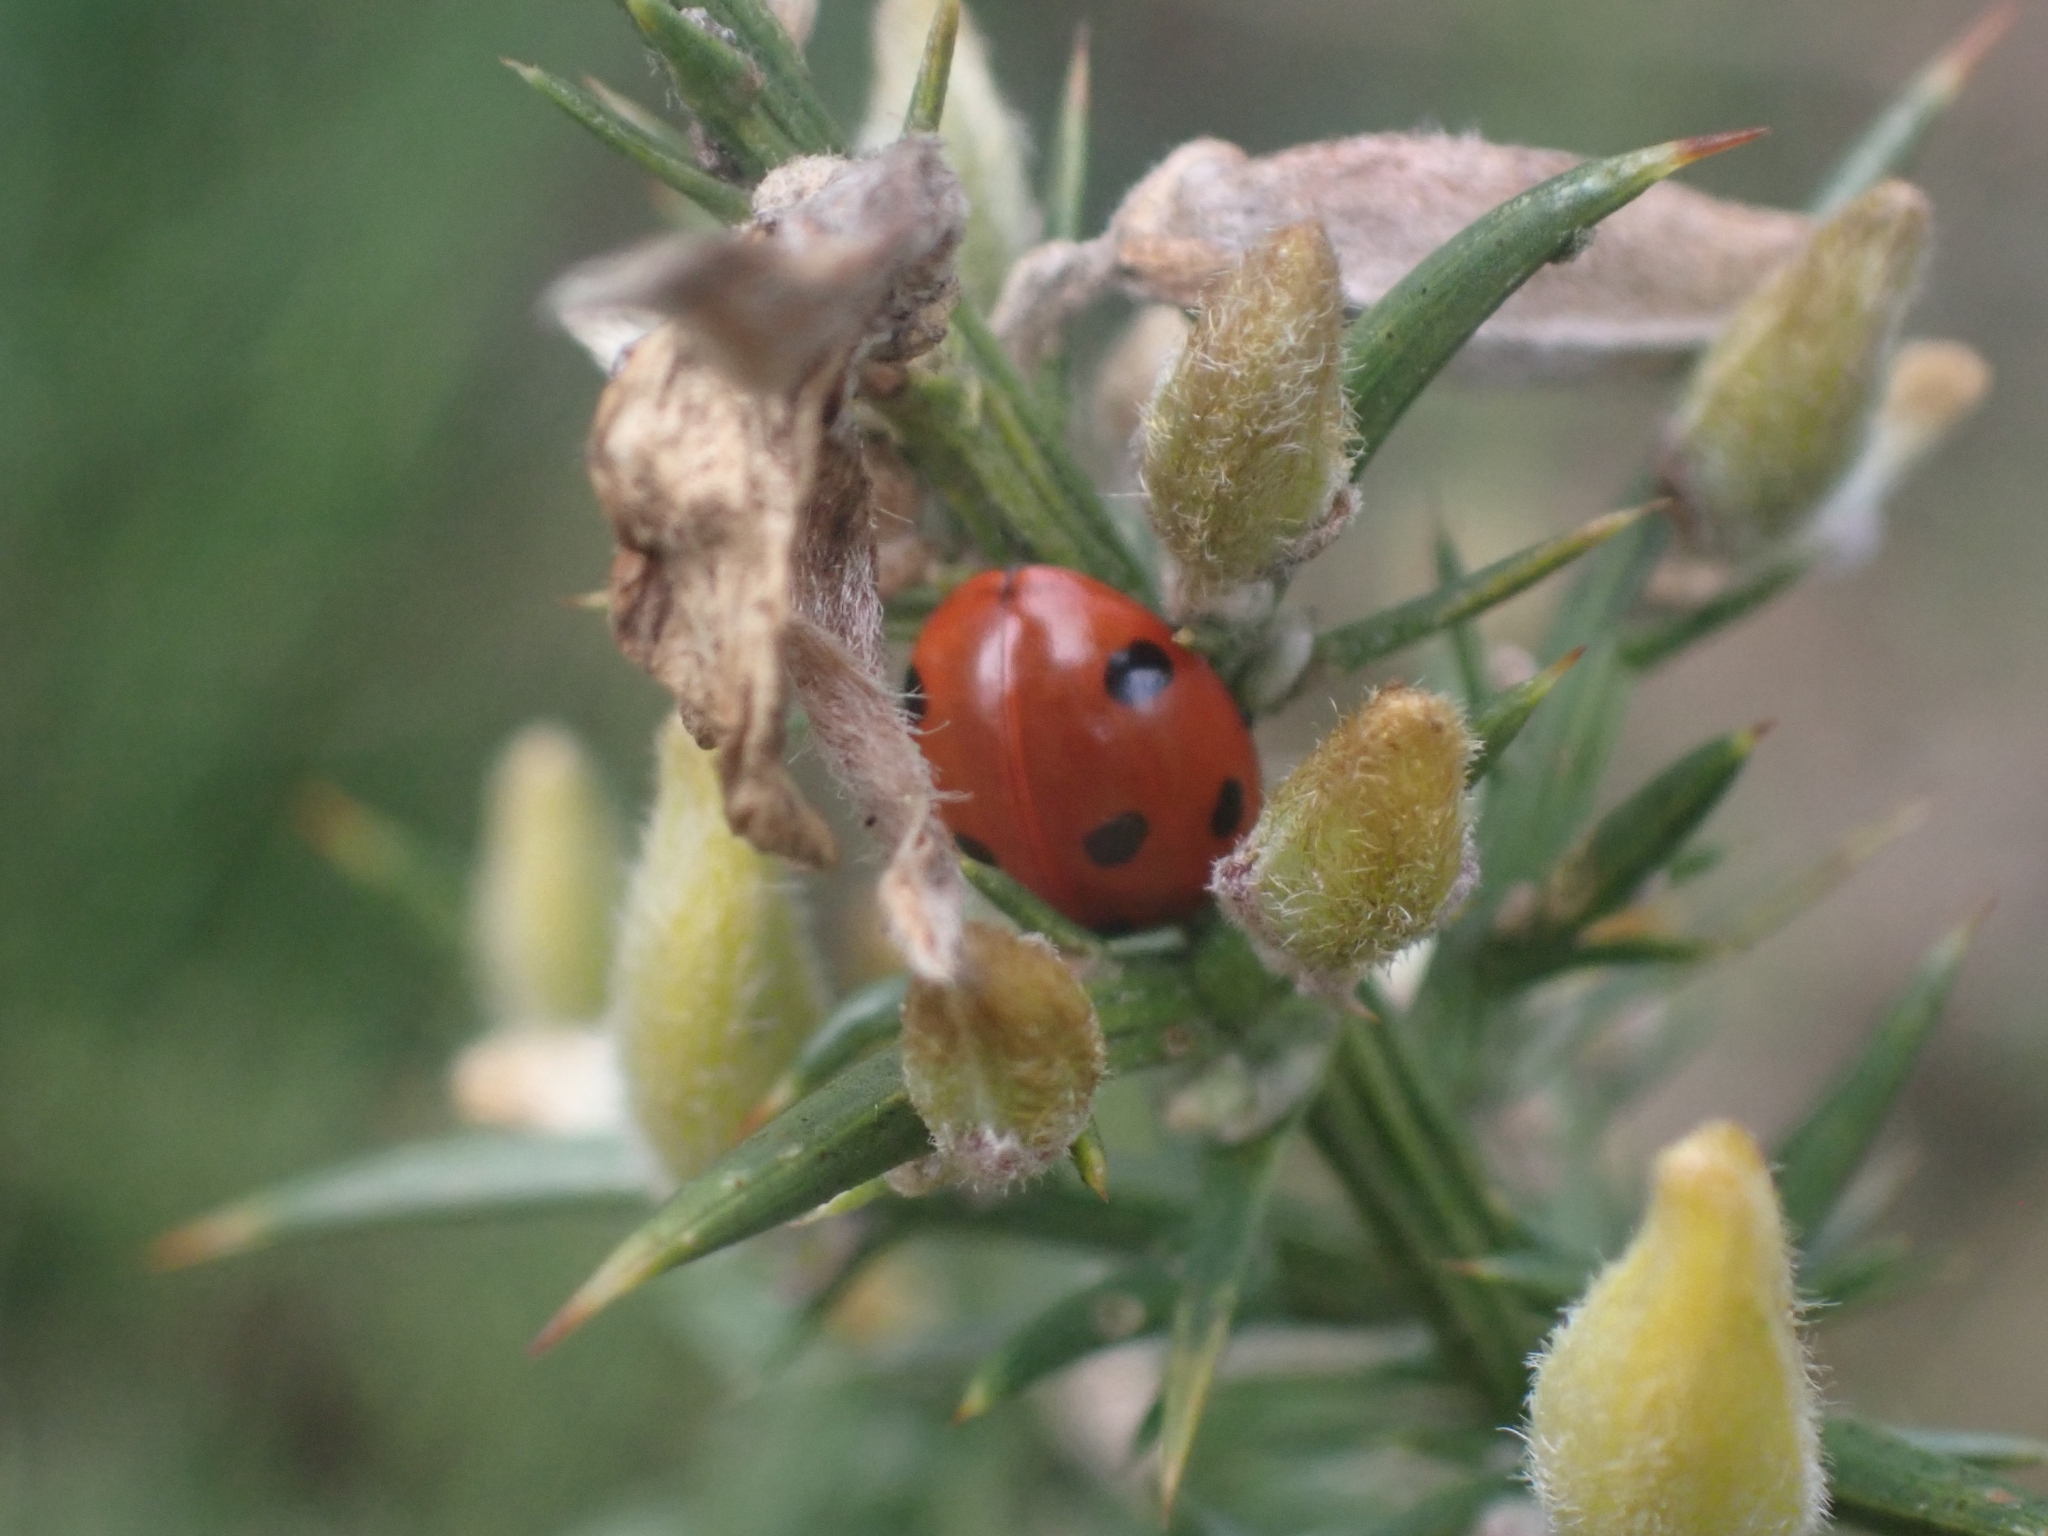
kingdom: Animalia
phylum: Arthropoda
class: Insecta
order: Coleoptera
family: Coccinellidae
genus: Coccinella
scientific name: Coccinella septempunctata
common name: Sevenspotted lady beetle
